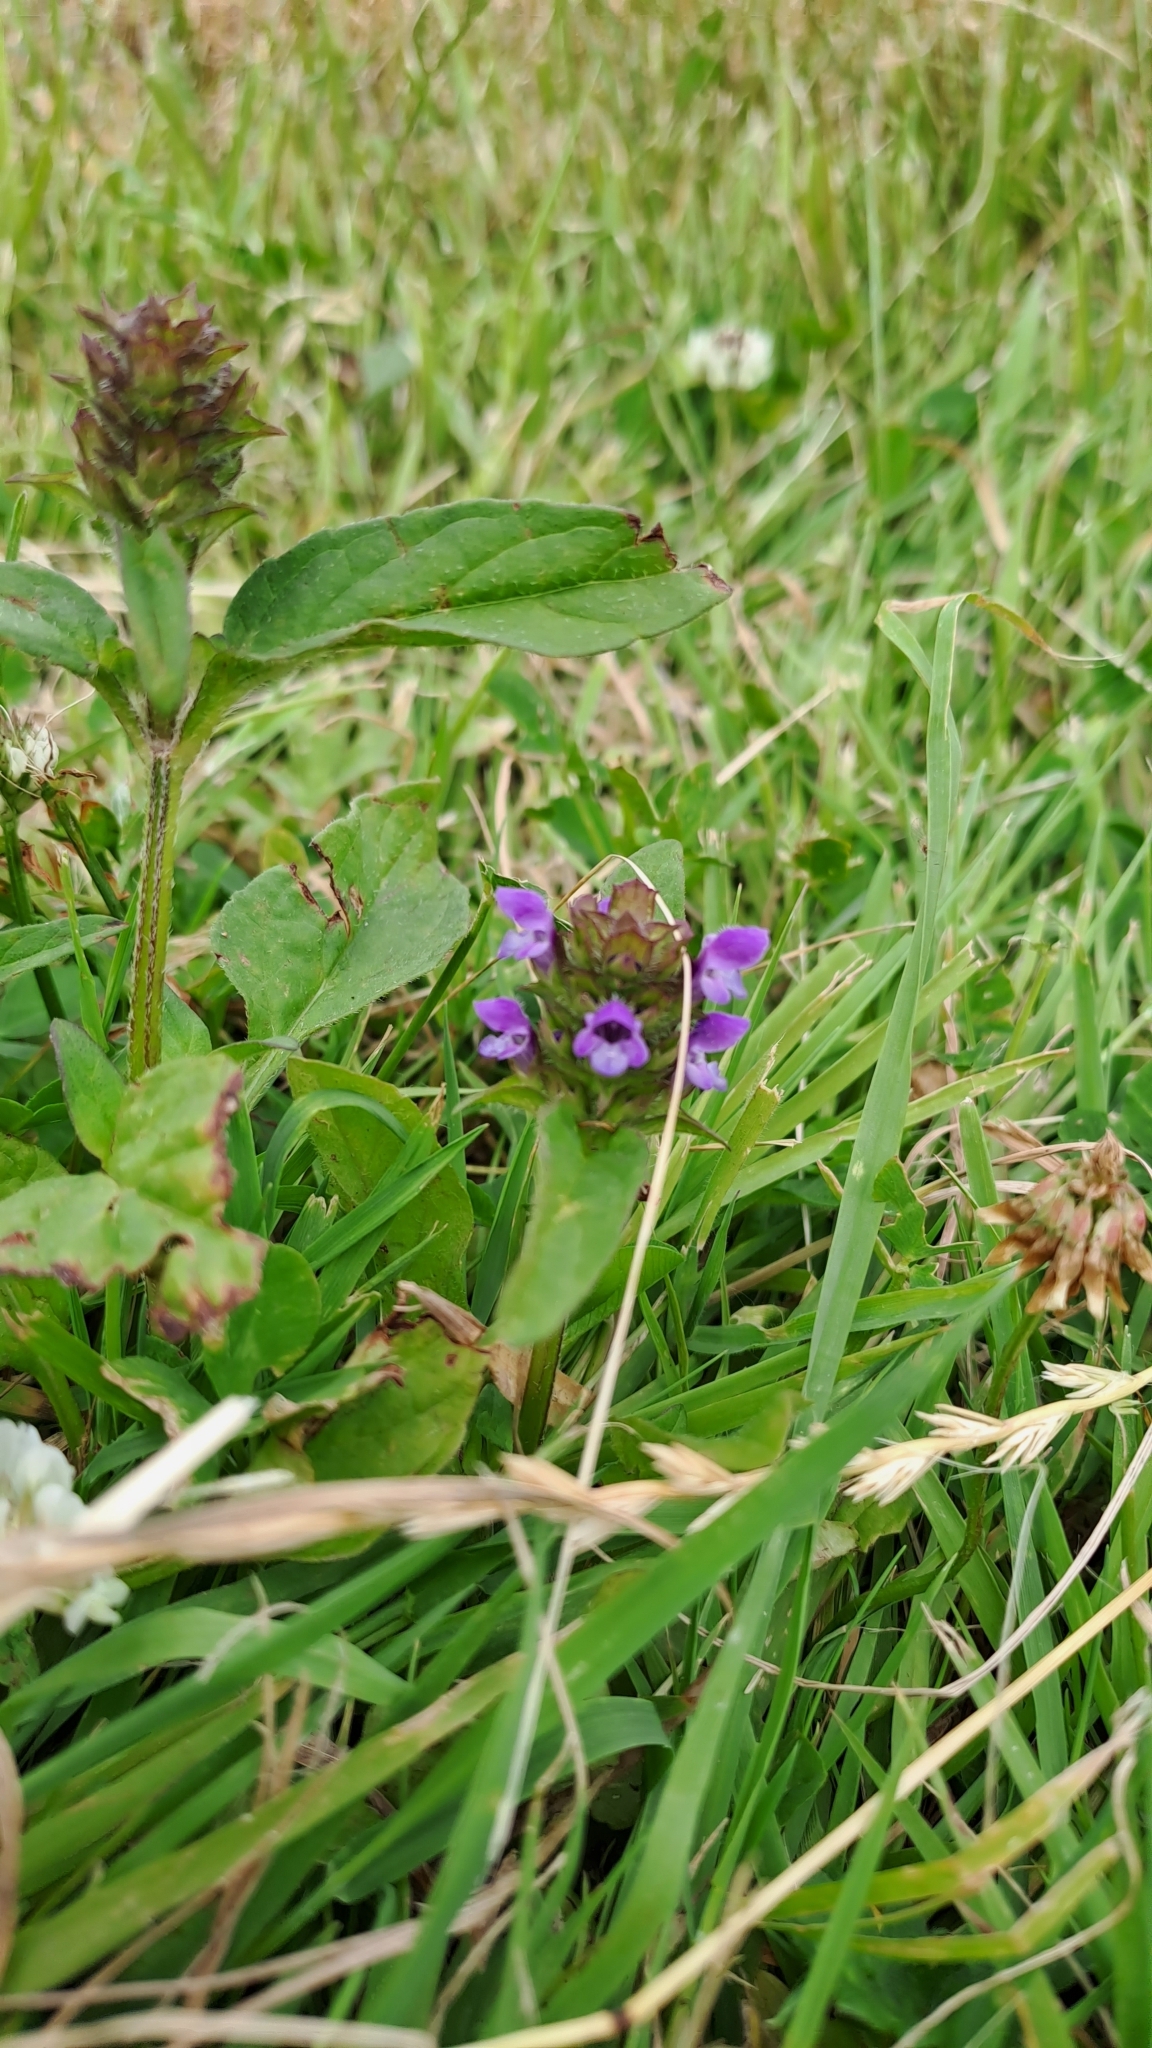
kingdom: Plantae
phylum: Tracheophyta
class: Magnoliopsida
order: Lamiales
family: Lamiaceae
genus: Prunella
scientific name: Prunella vulgaris
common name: Heal-all
